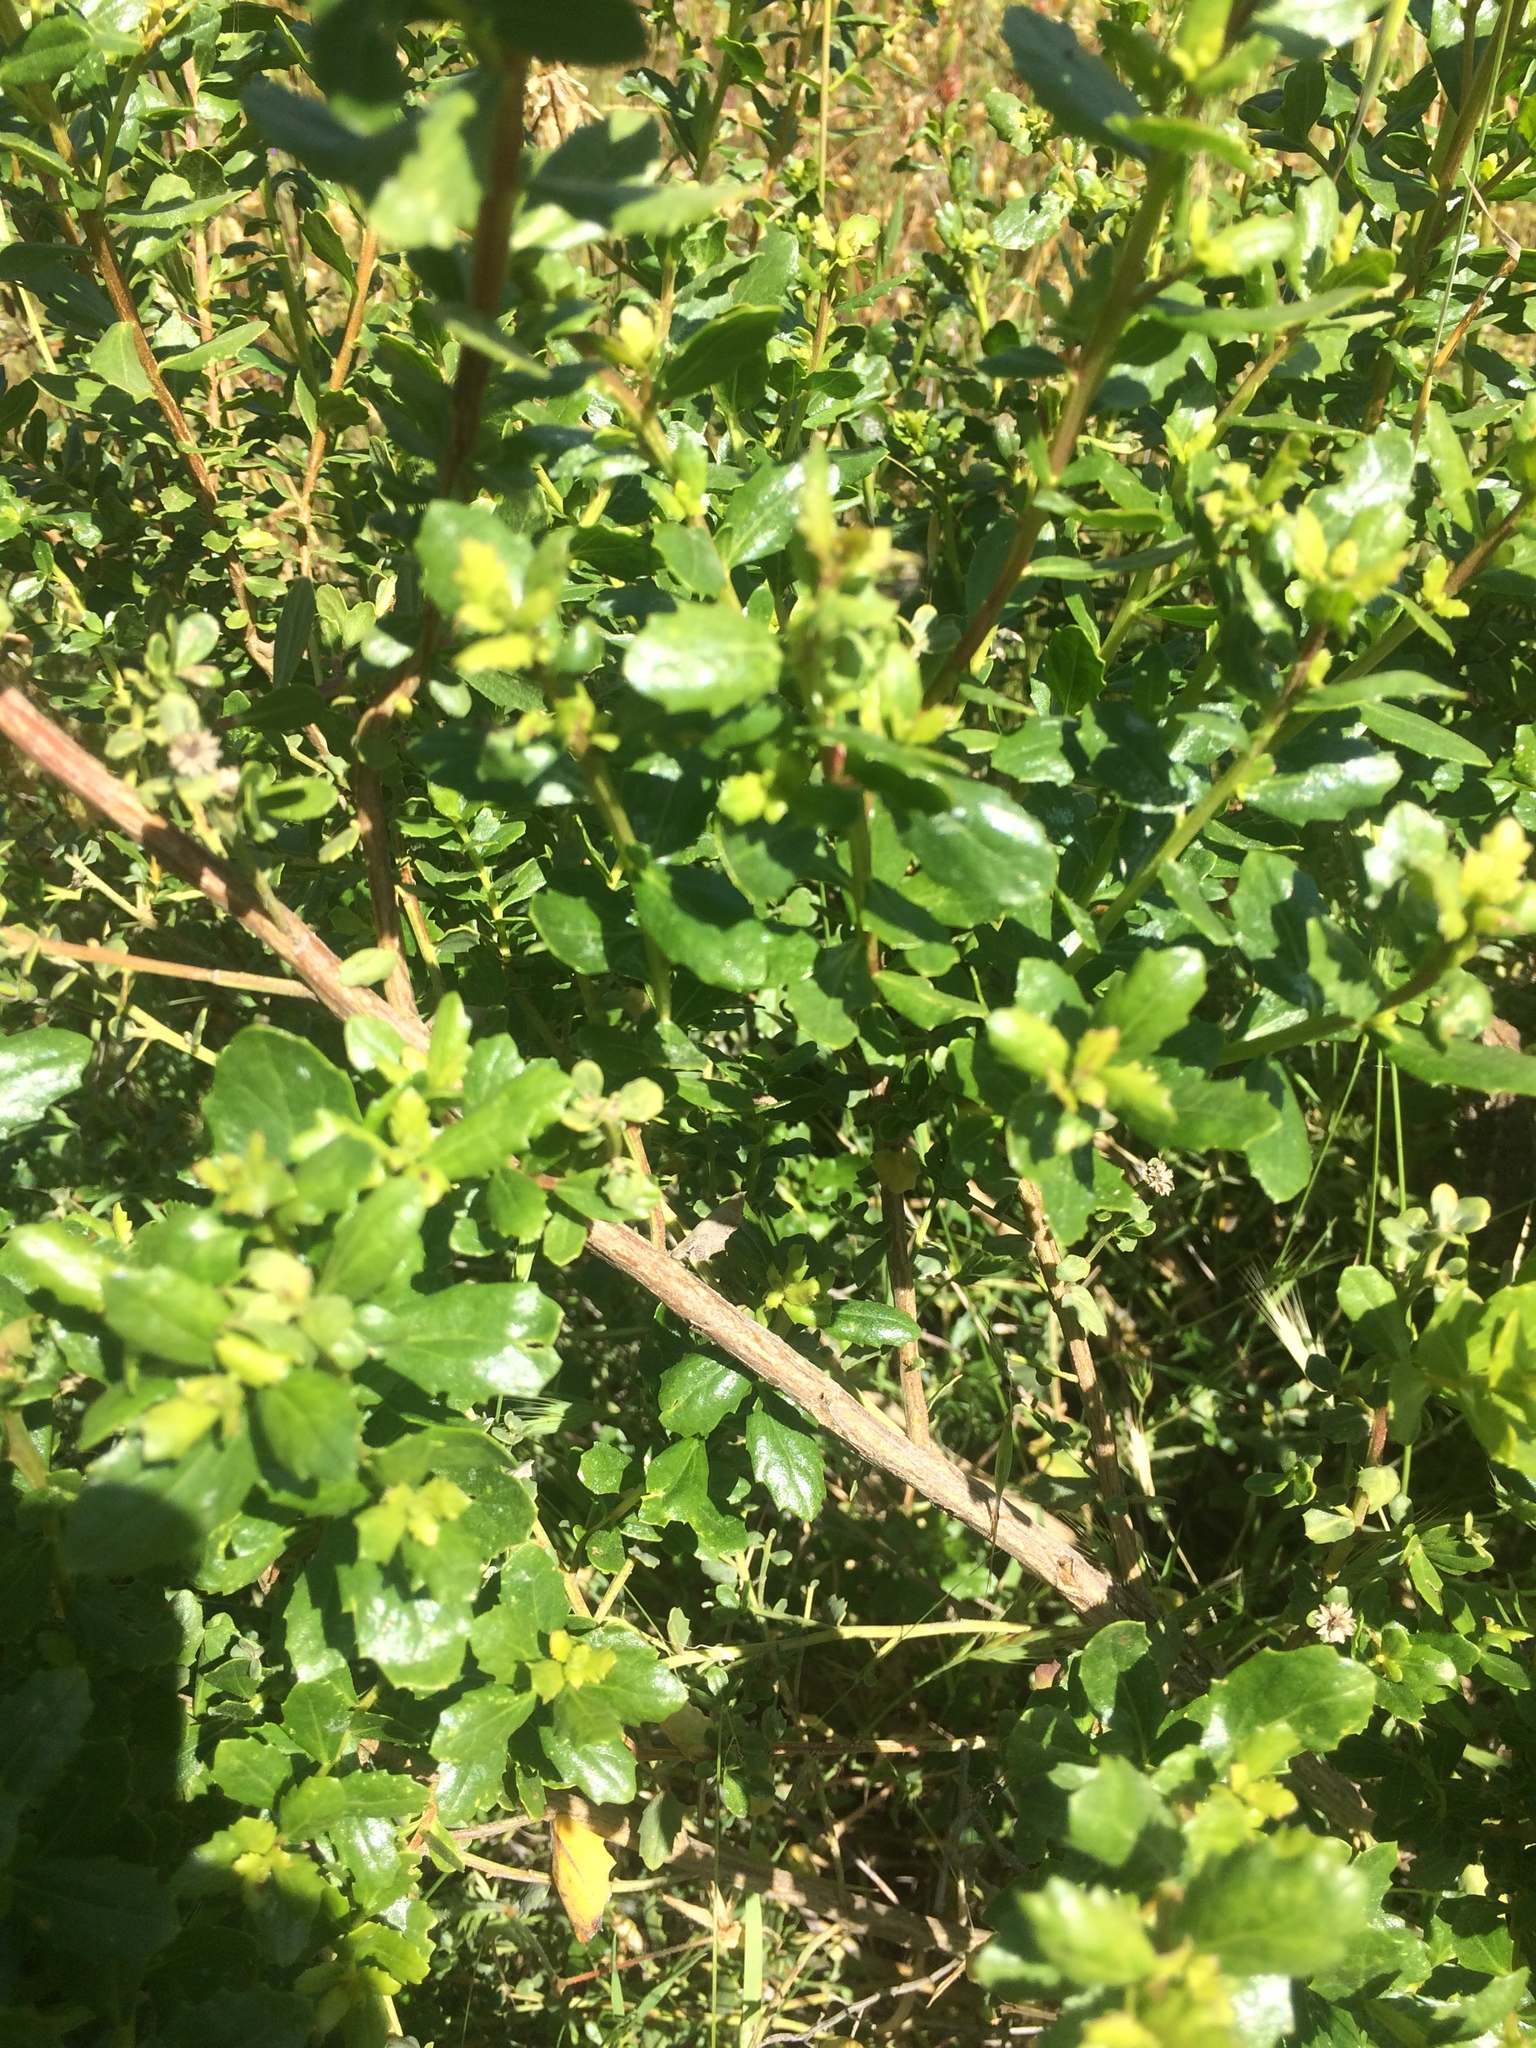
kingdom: Plantae
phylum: Tracheophyta
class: Magnoliopsida
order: Asterales
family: Asteraceae
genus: Baccharis
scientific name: Baccharis pilularis
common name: Coyotebrush
